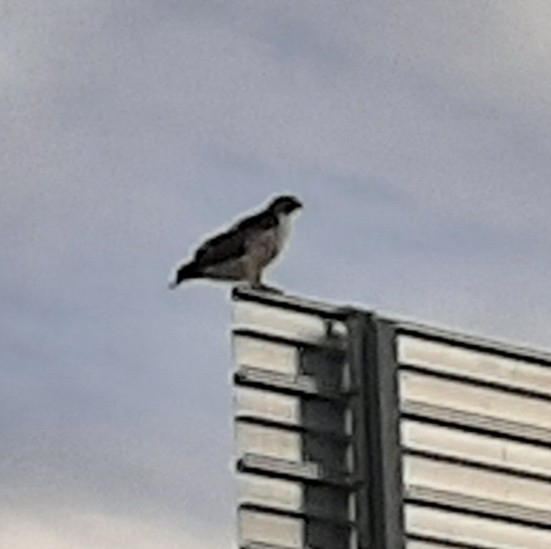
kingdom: Animalia
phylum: Chordata
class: Aves
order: Accipitriformes
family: Accipitridae
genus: Buteo
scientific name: Buteo jamaicensis
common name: Red-tailed hawk
